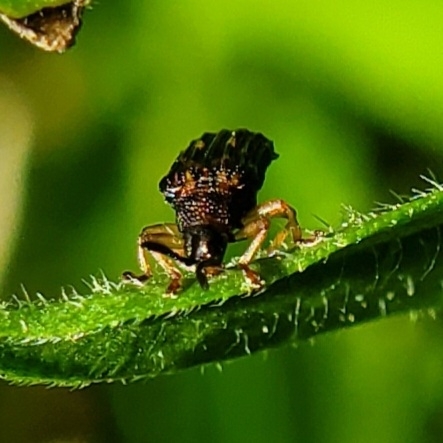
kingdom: Animalia
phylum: Arthropoda
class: Insecta
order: Coleoptera
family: Chrysomelidae
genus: Sumitrosis
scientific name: Sumitrosis inaequalis
